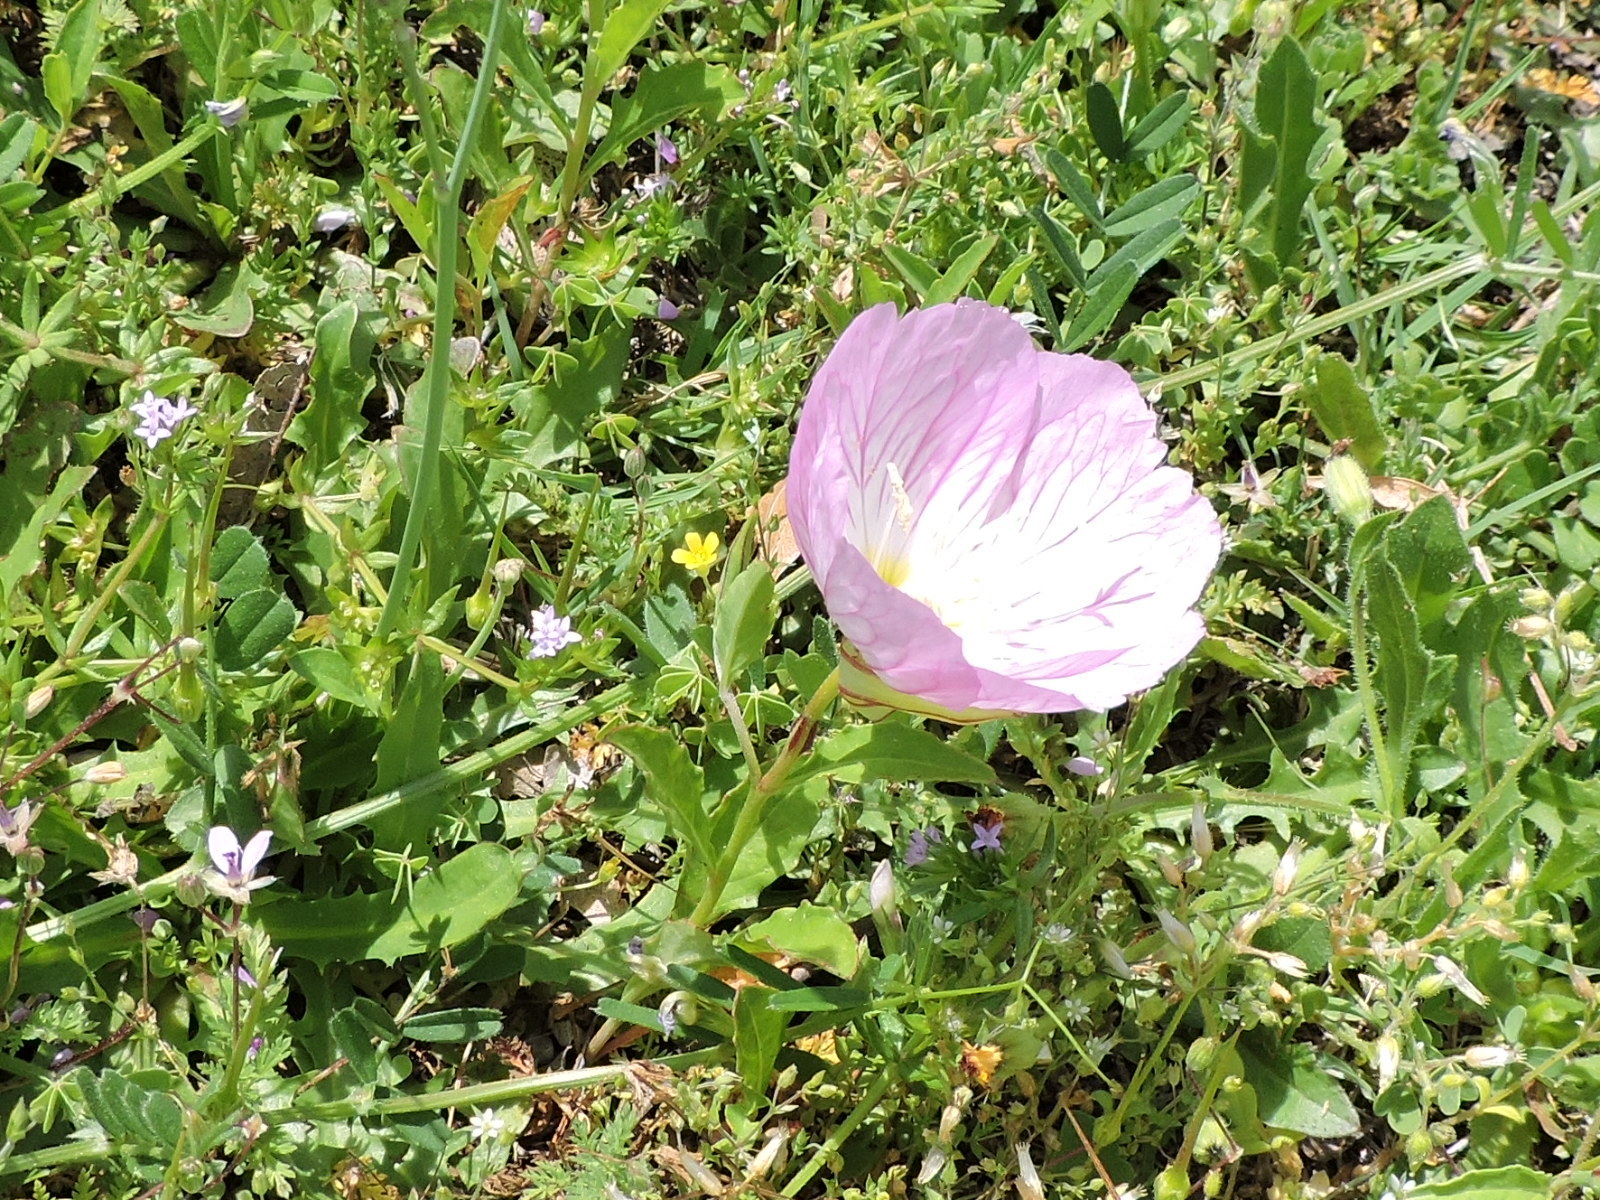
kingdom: Plantae
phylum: Tracheophyta
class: Magnoliopsida
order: Myrtales
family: Onagraceae
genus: Oenothera
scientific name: Oenothera speciosa
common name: White evening-primrose
